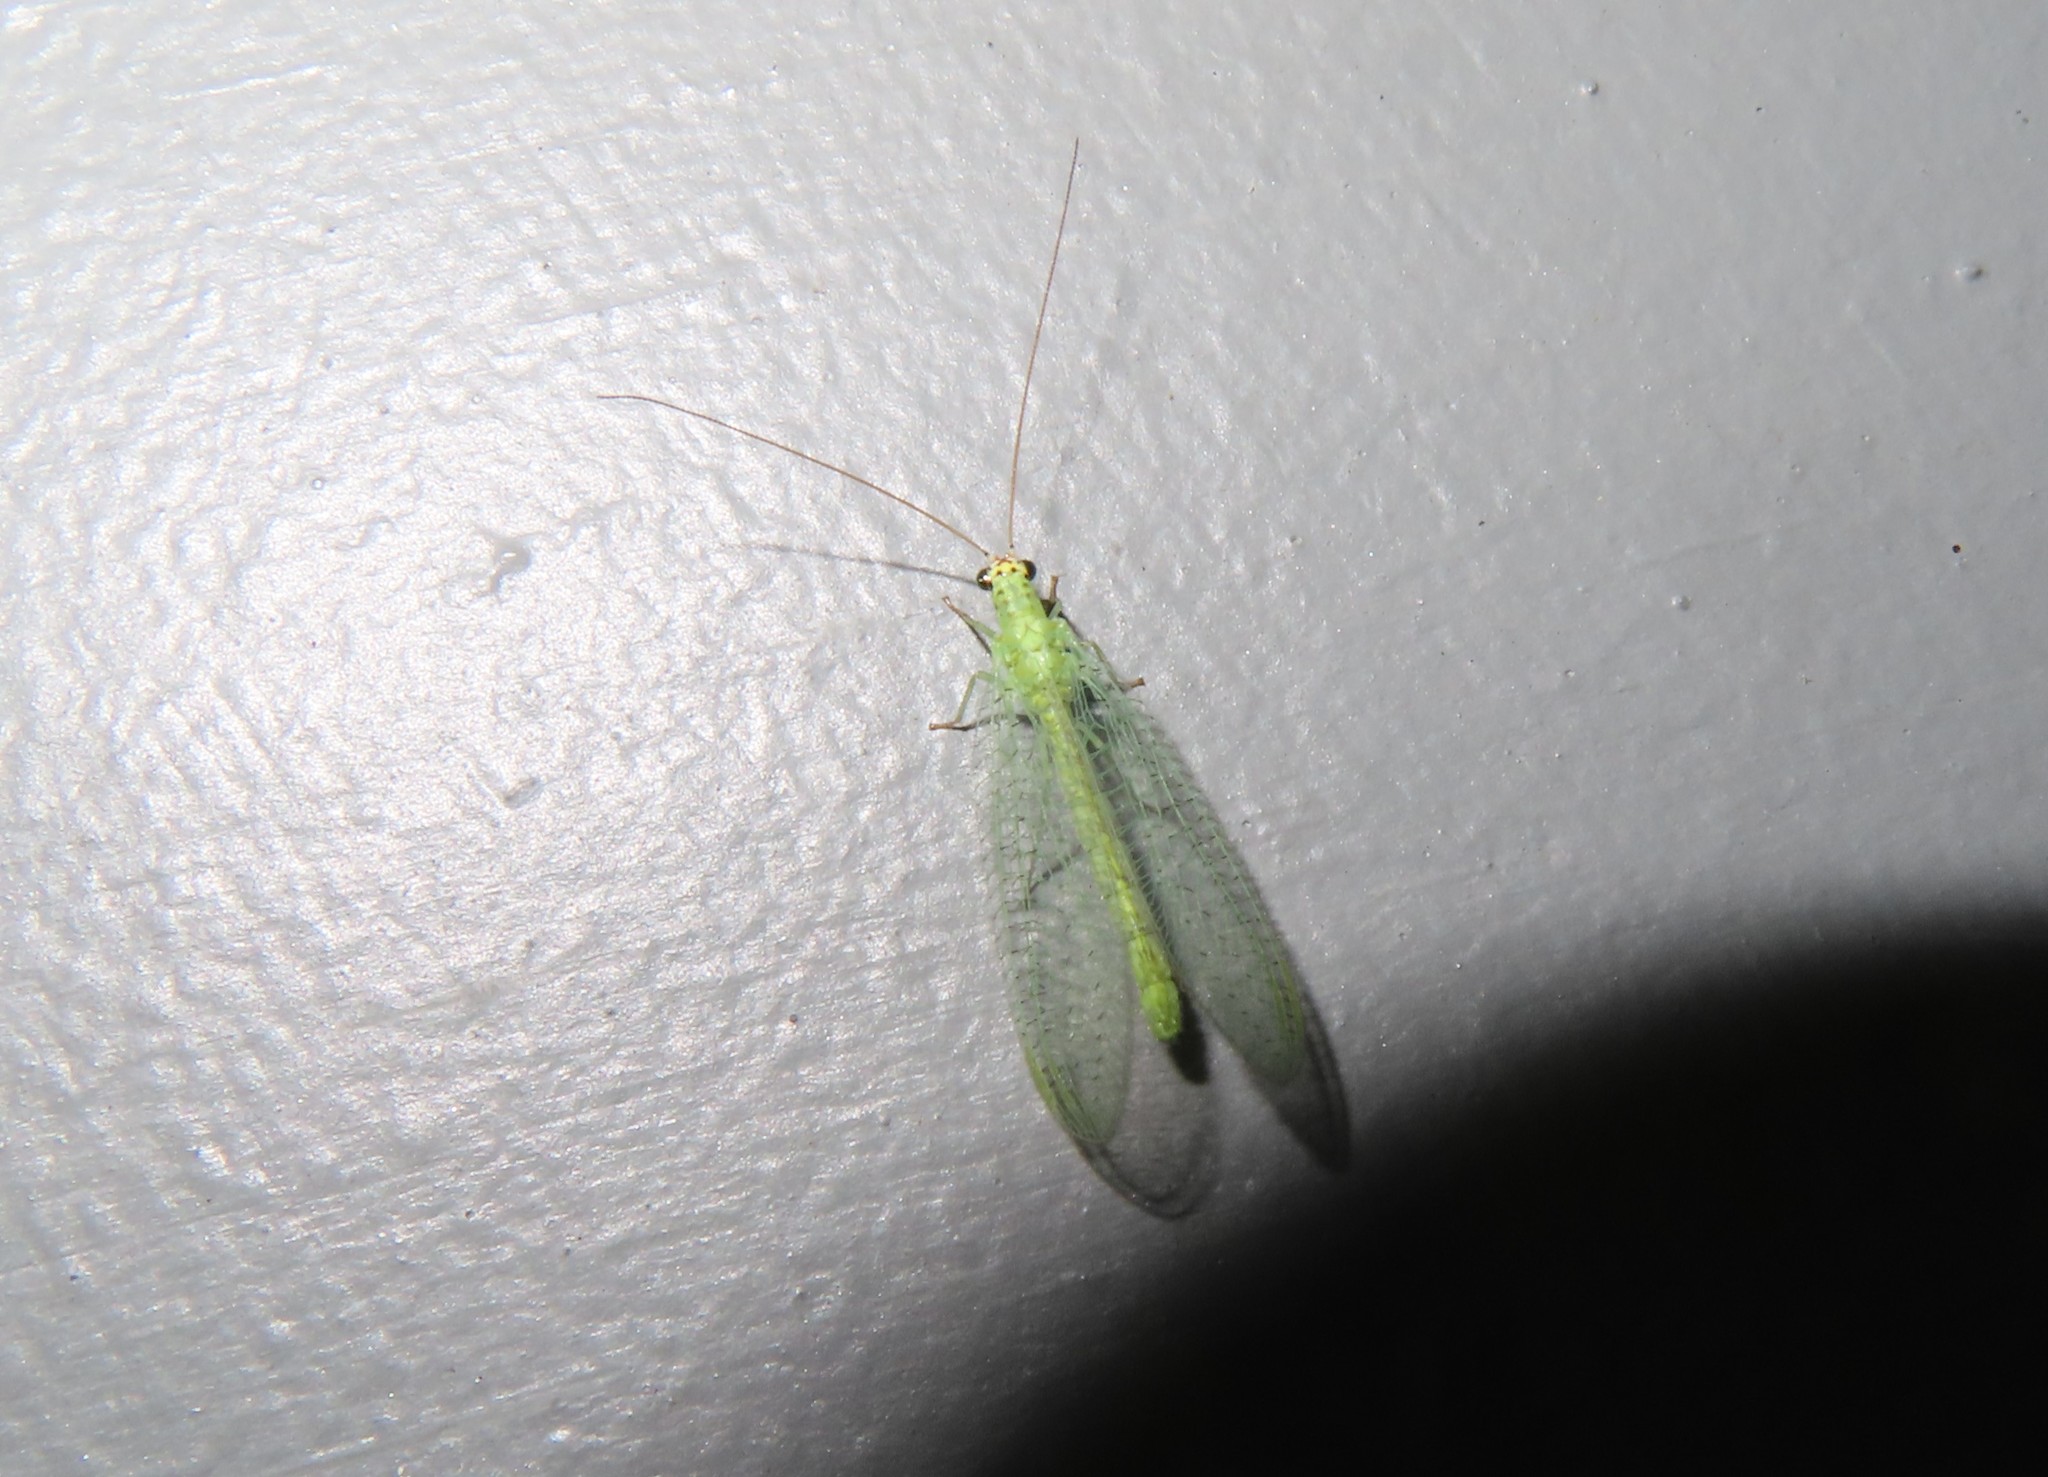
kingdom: Animalia
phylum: Arthropoda
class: Insecta
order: Neuroptera
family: Chrysopidae
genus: Chrysopa
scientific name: Chrysopa oculata
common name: Golden-eyed lacewing
